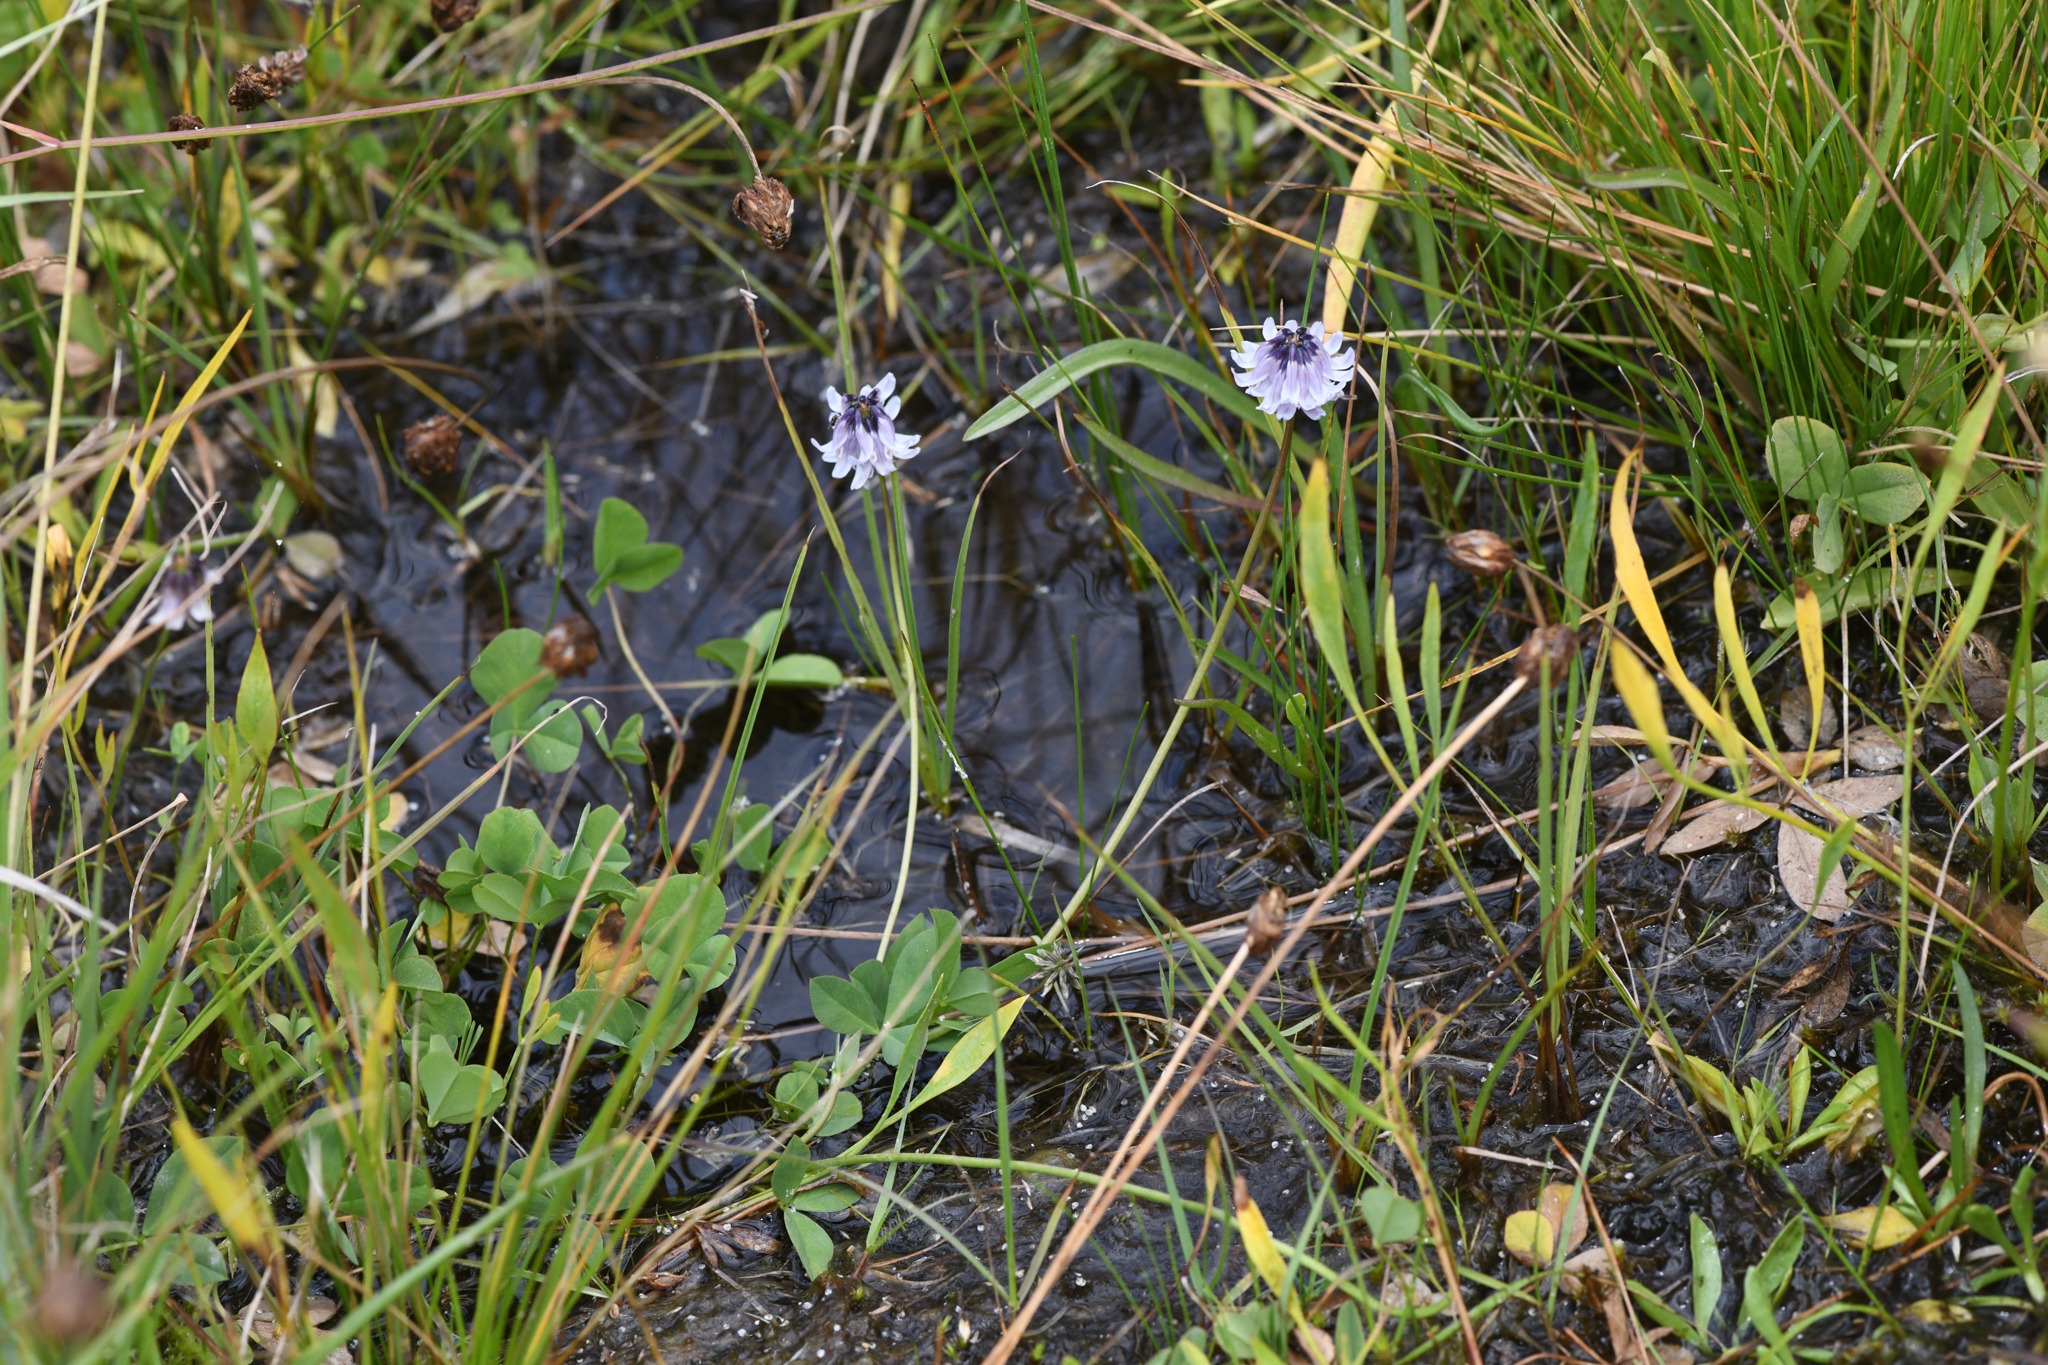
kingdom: Plantae
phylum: Tracheophyta
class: Magnoliopsida
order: Fabales
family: Fabaceae
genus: Trifolium
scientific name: Trifolium bolanderi
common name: Bolander's clover
